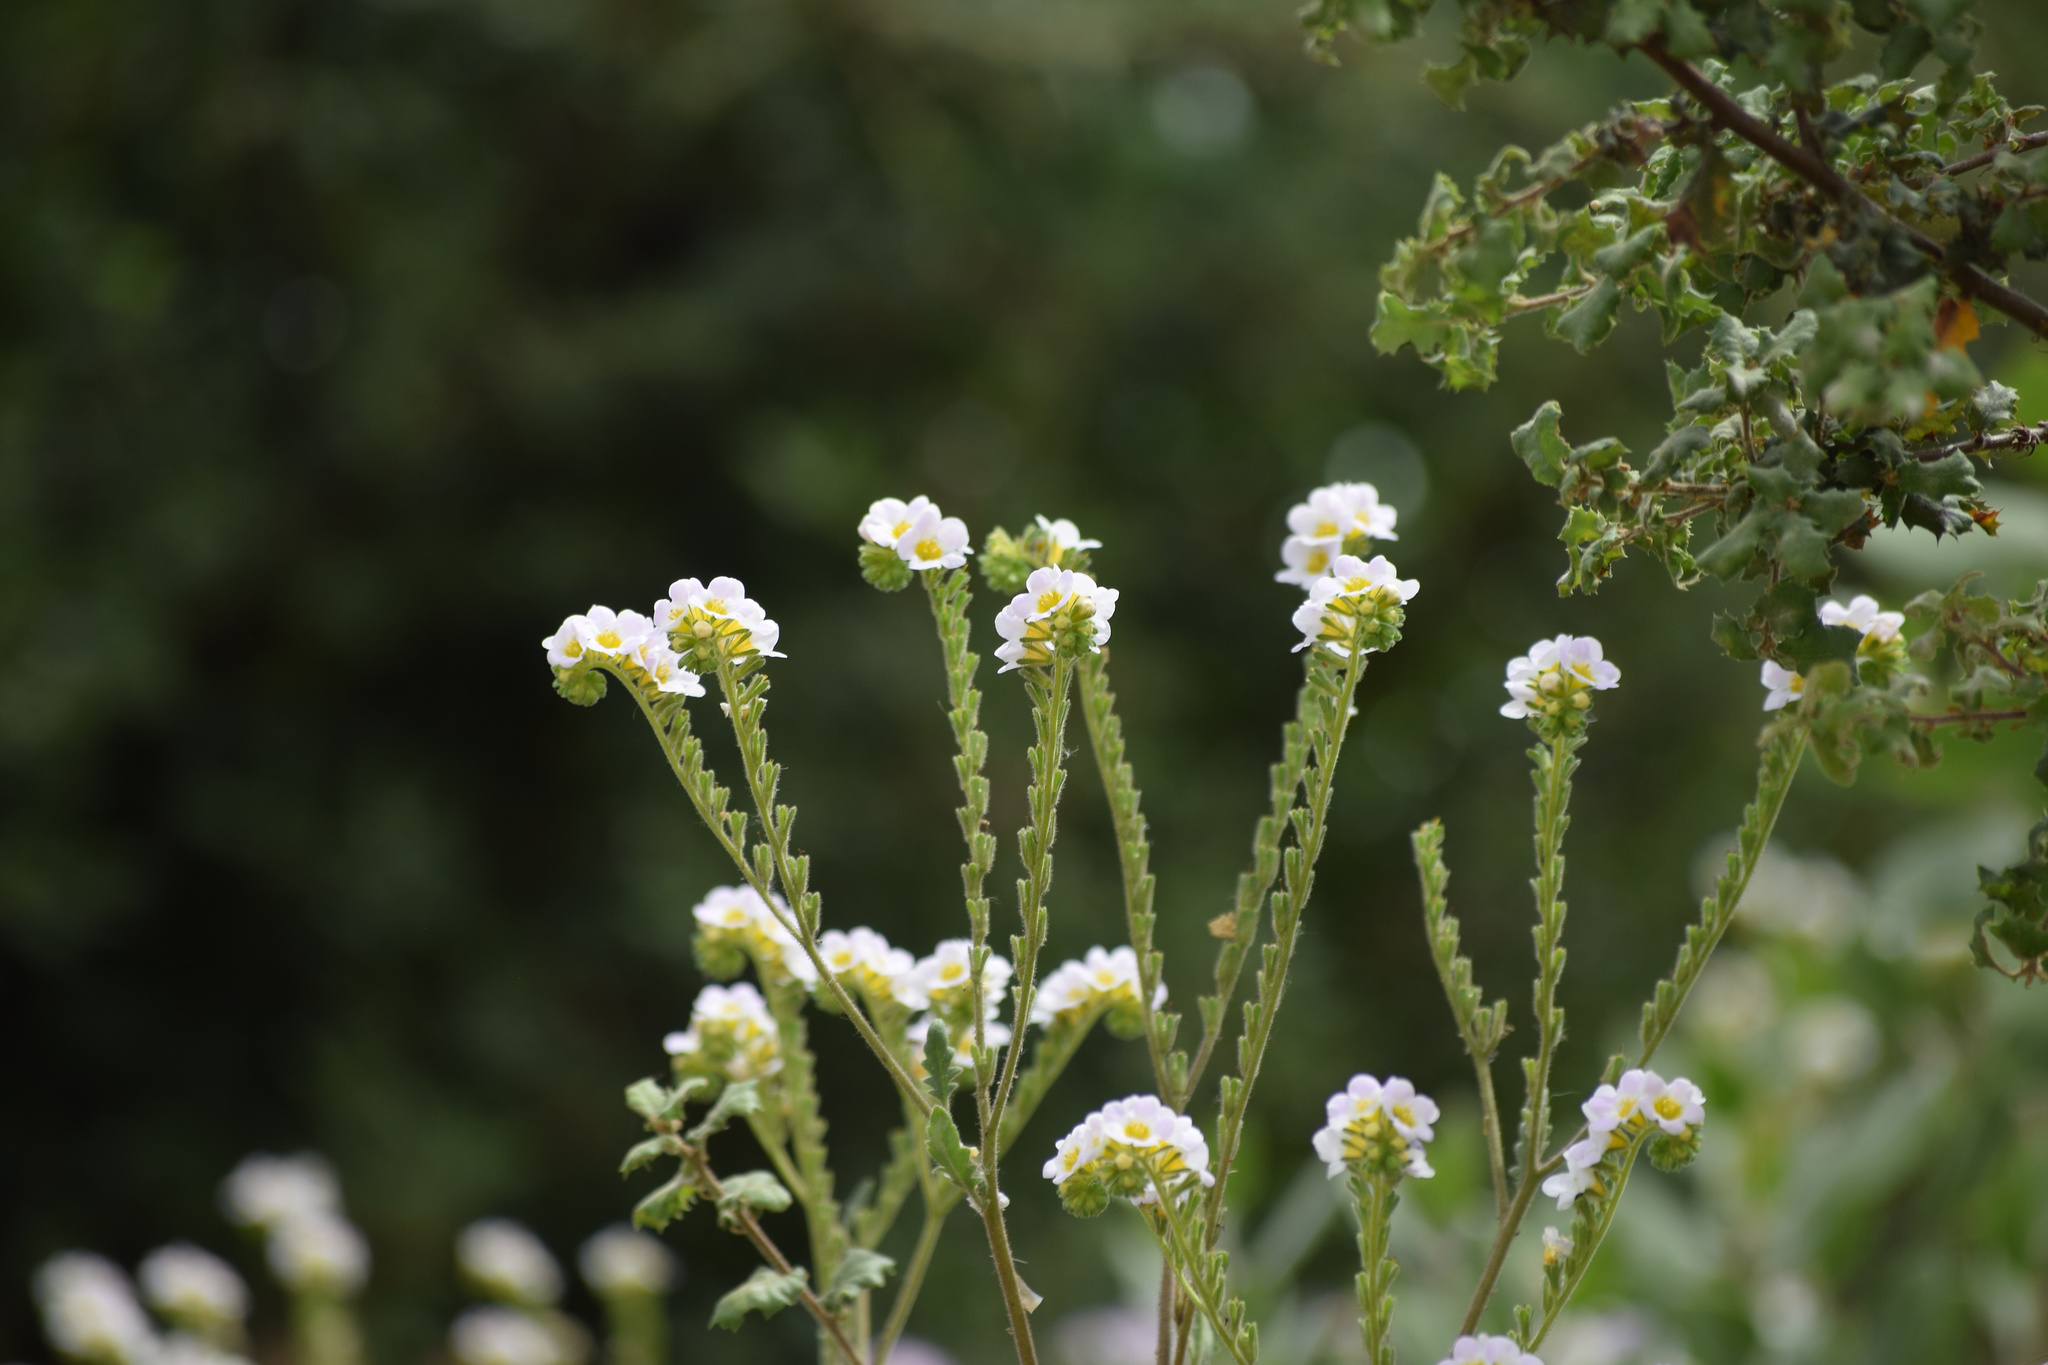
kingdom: Plantae
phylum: Tracheophyta
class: Magnoliopsida
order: Boraginales
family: Hydrophyllaceae
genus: Phacelia
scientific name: Phacelia brachyloba
